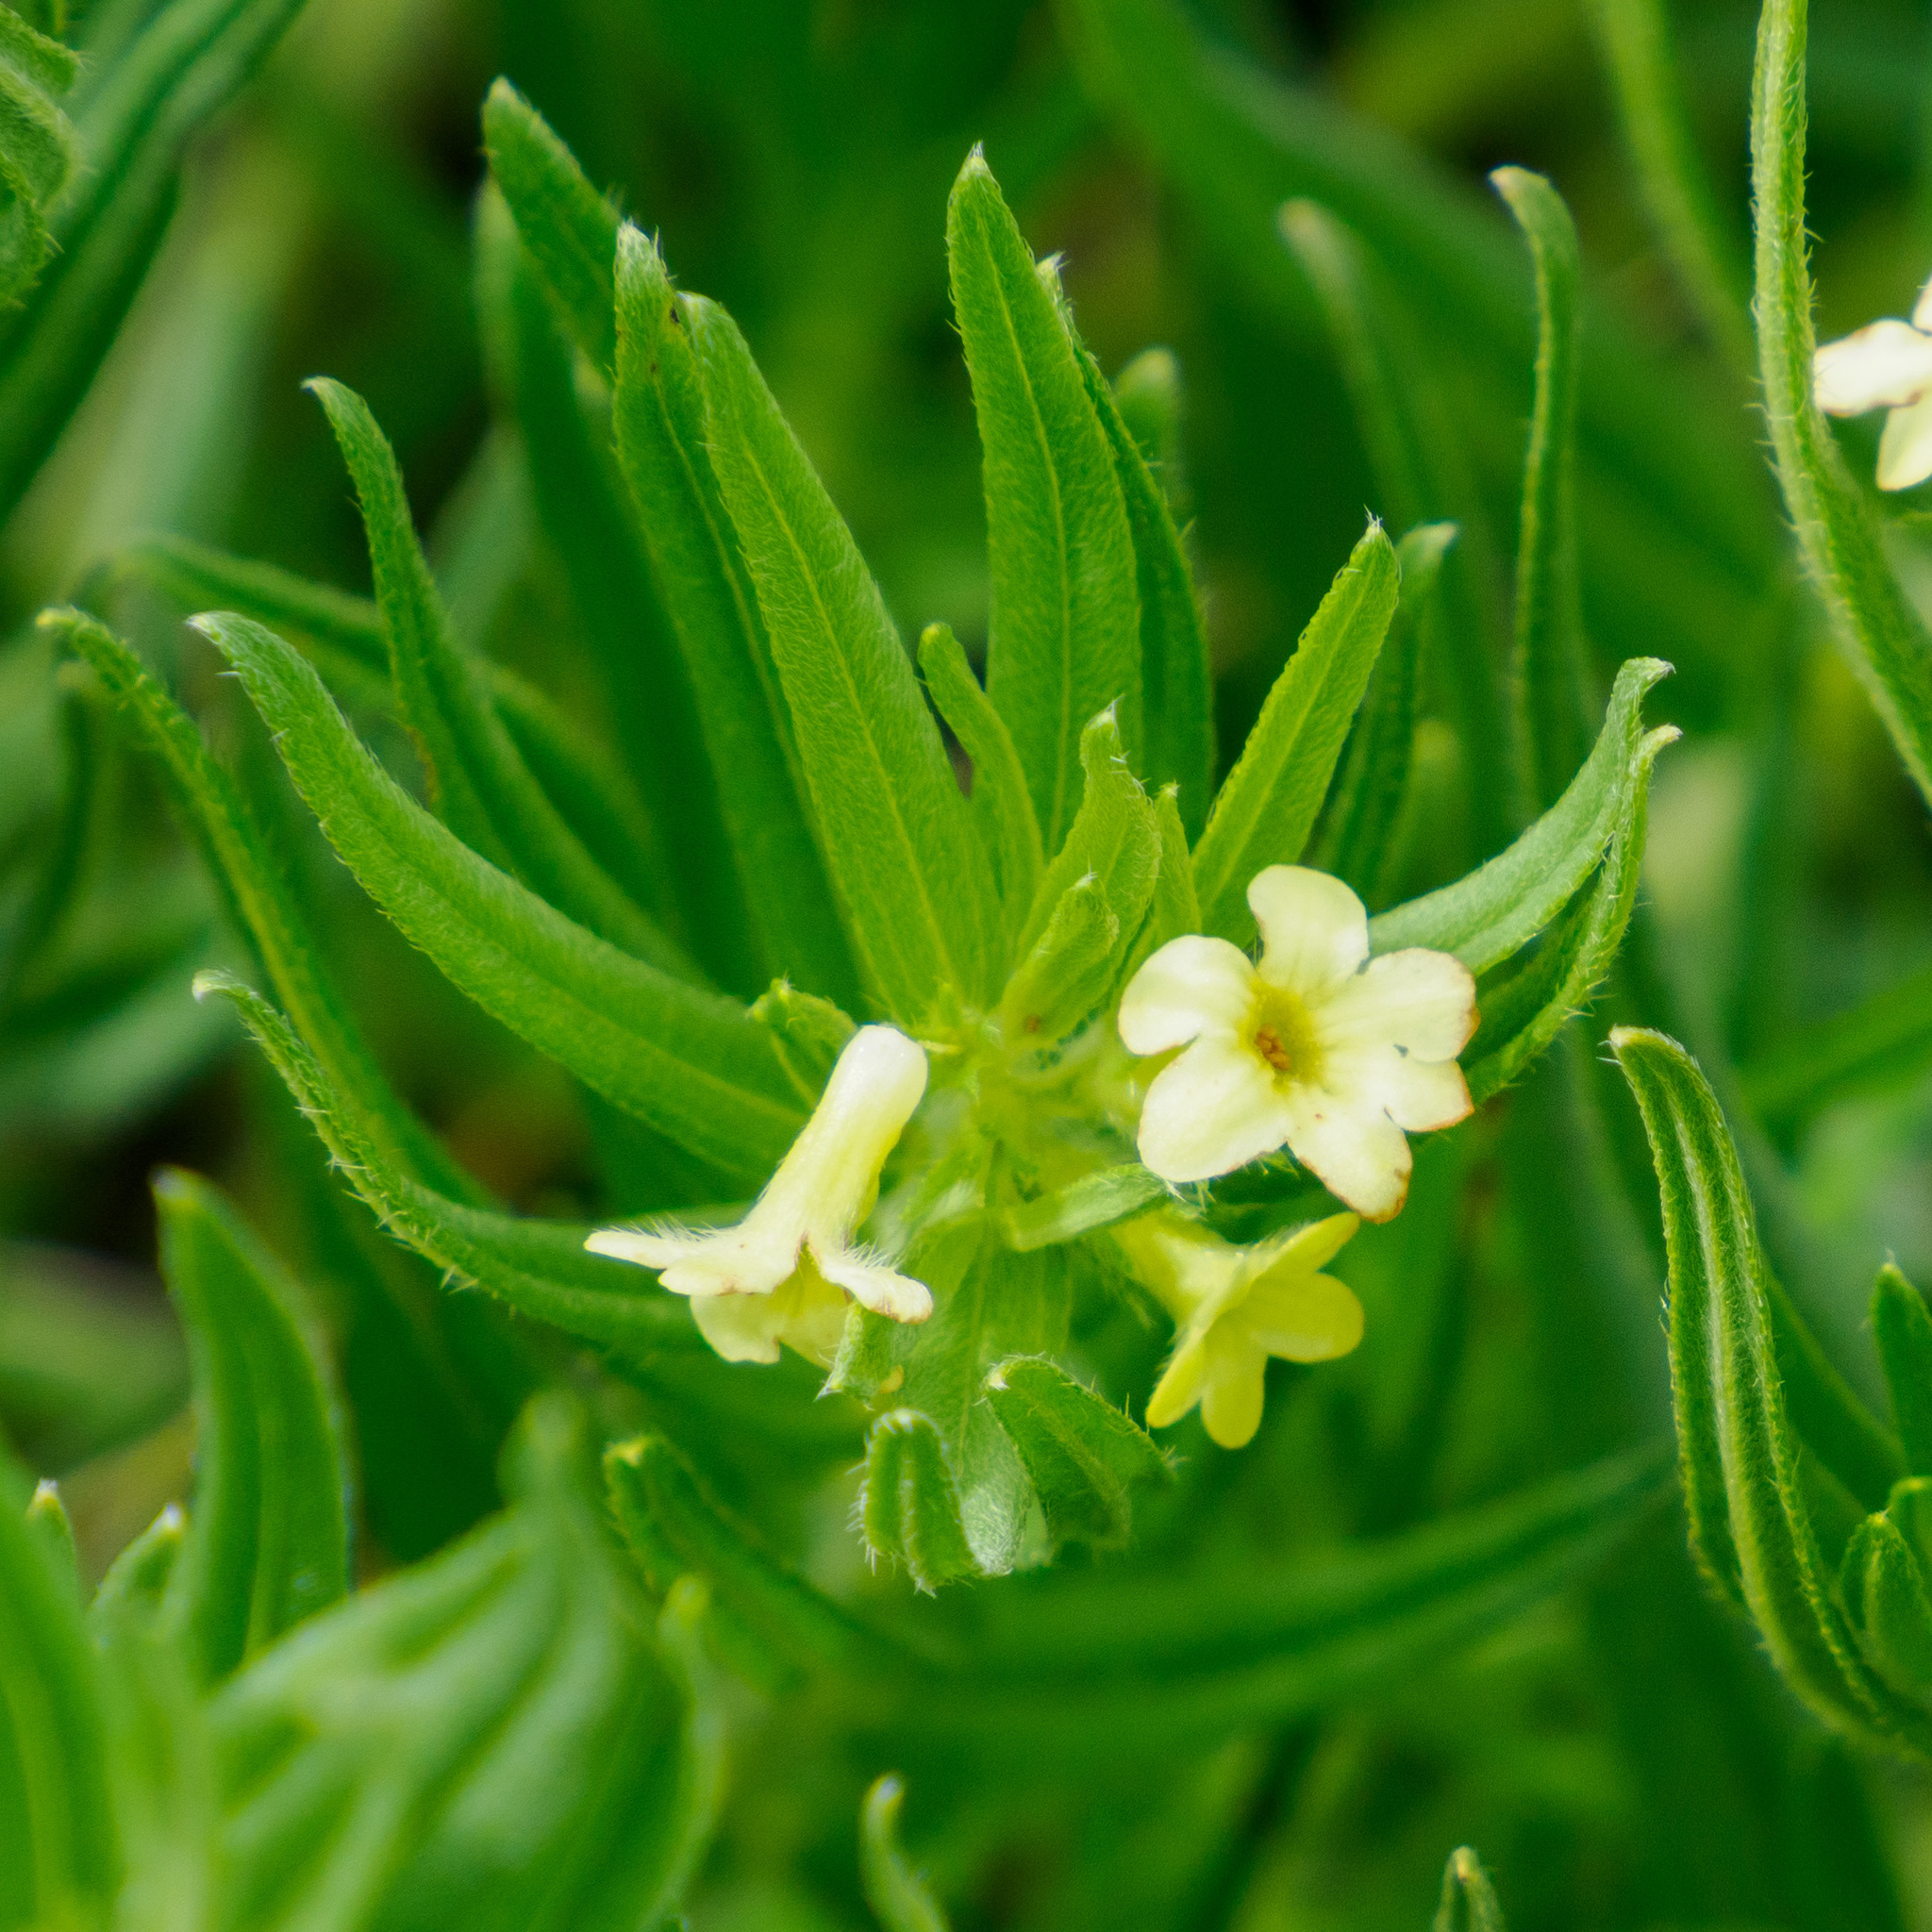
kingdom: Plantae
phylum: Tracheophyta
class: Magnoliopsida
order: Boraginales
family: Boraginaceae
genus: Lithospermum
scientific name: Lithospermum ruderale
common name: Western gromwell
